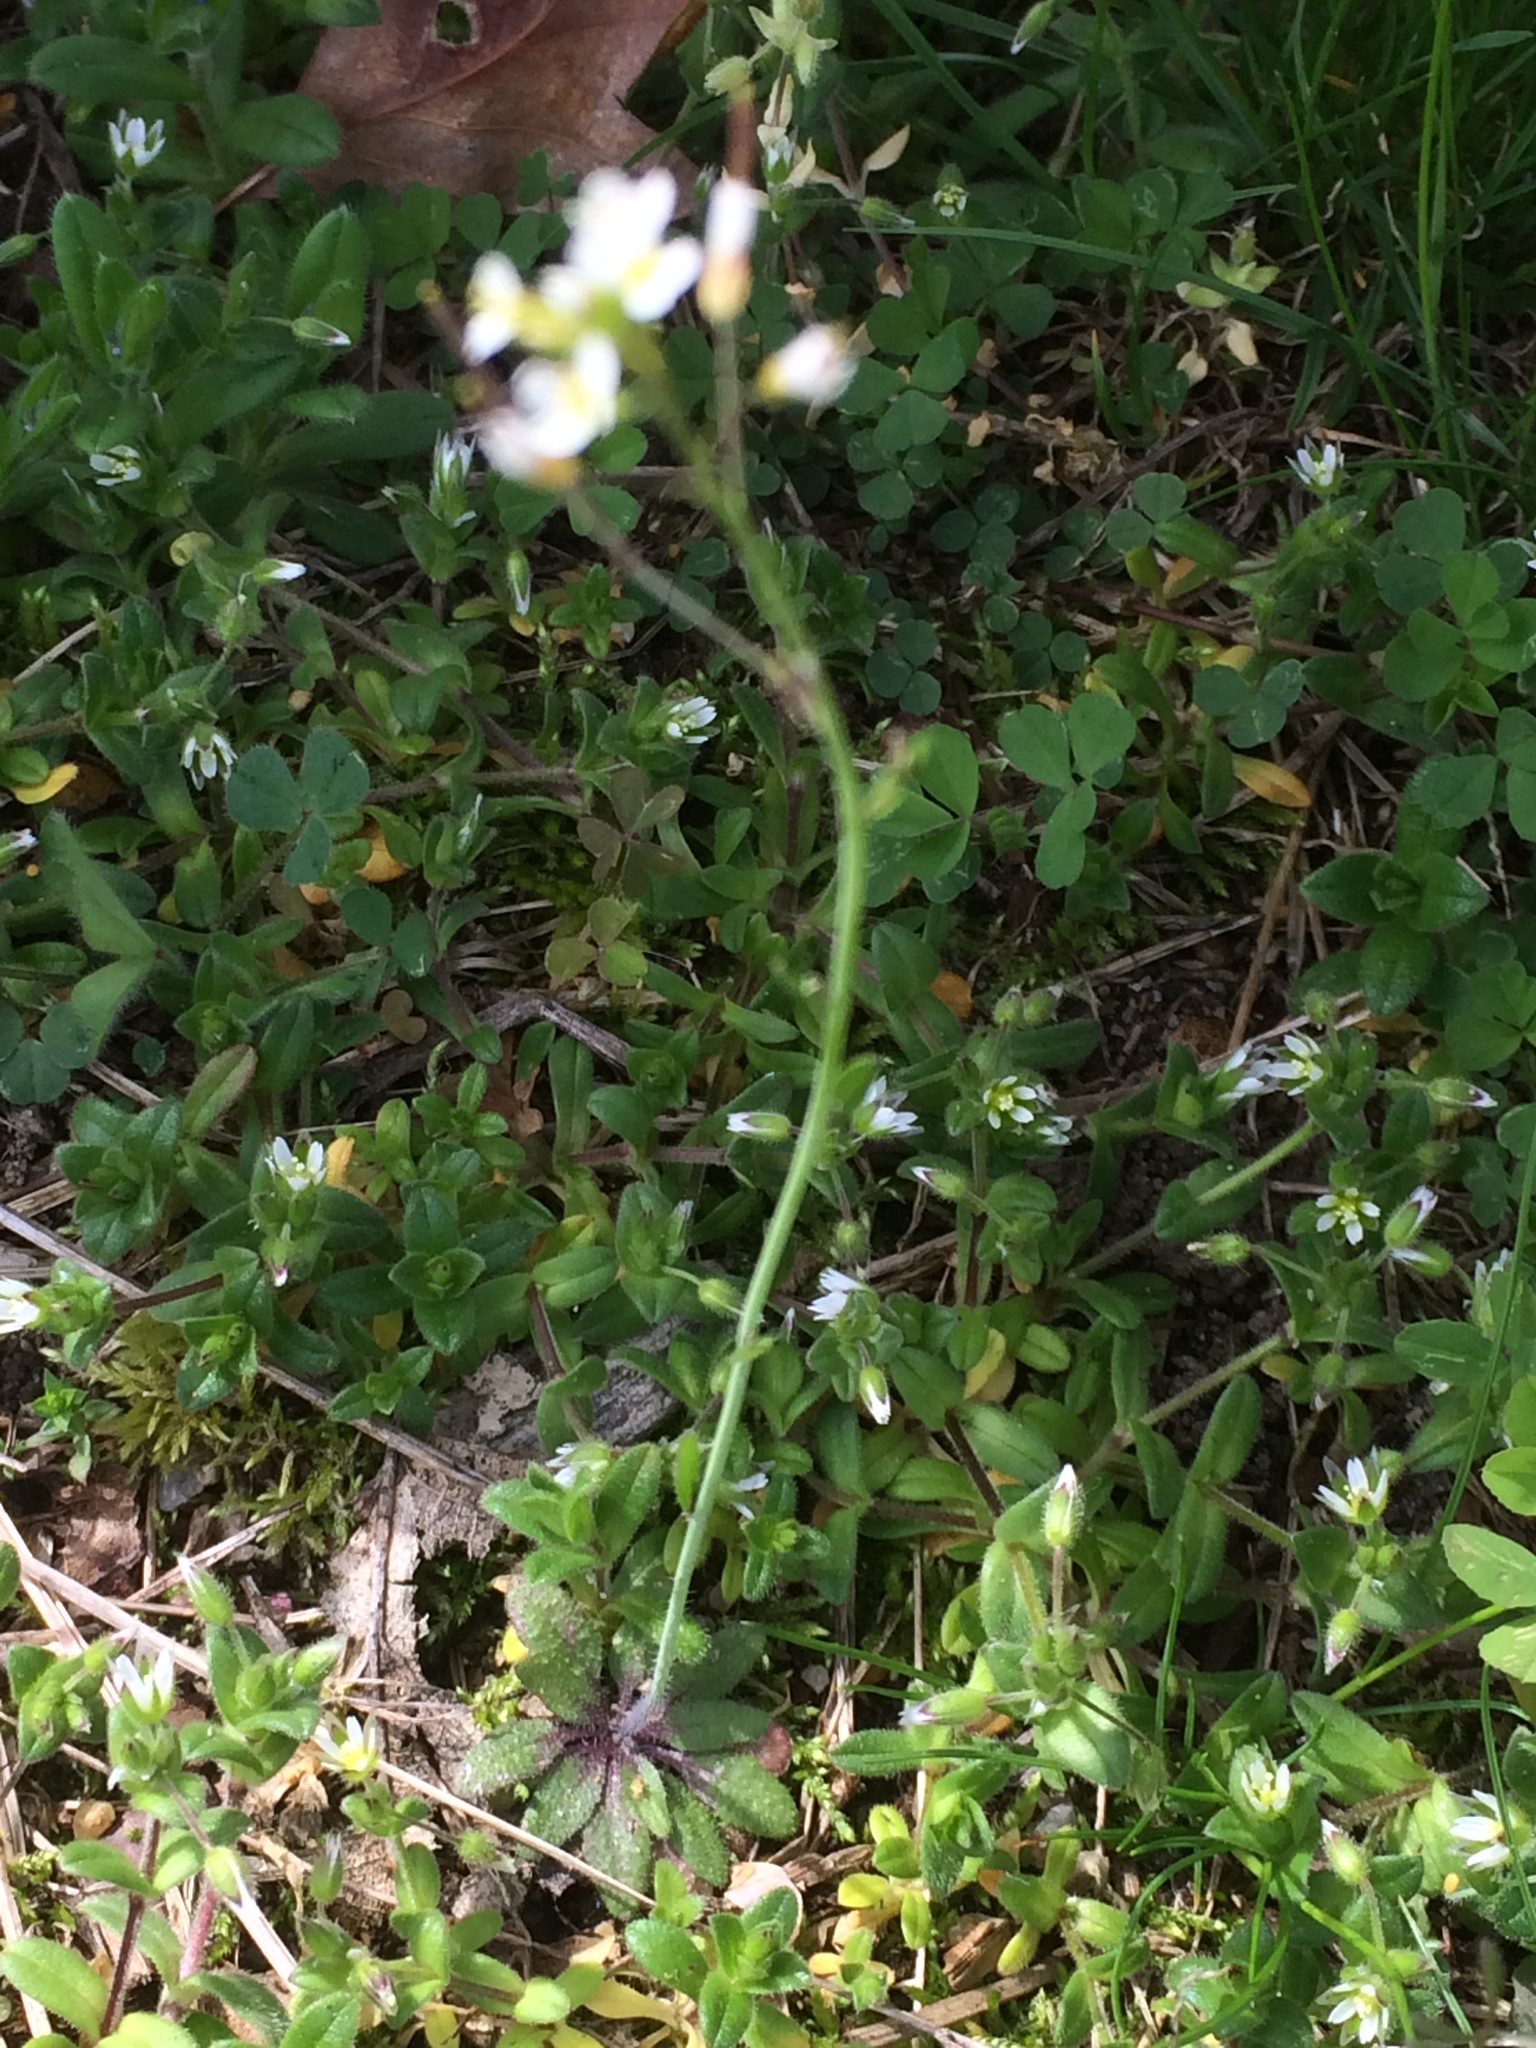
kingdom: Plantae
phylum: Tracheophyta
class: Magnoliopsida
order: Brassicales
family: Brassicaceae
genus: Arabidopsis
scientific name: Arabidopsis thaliana
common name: Thale cress
